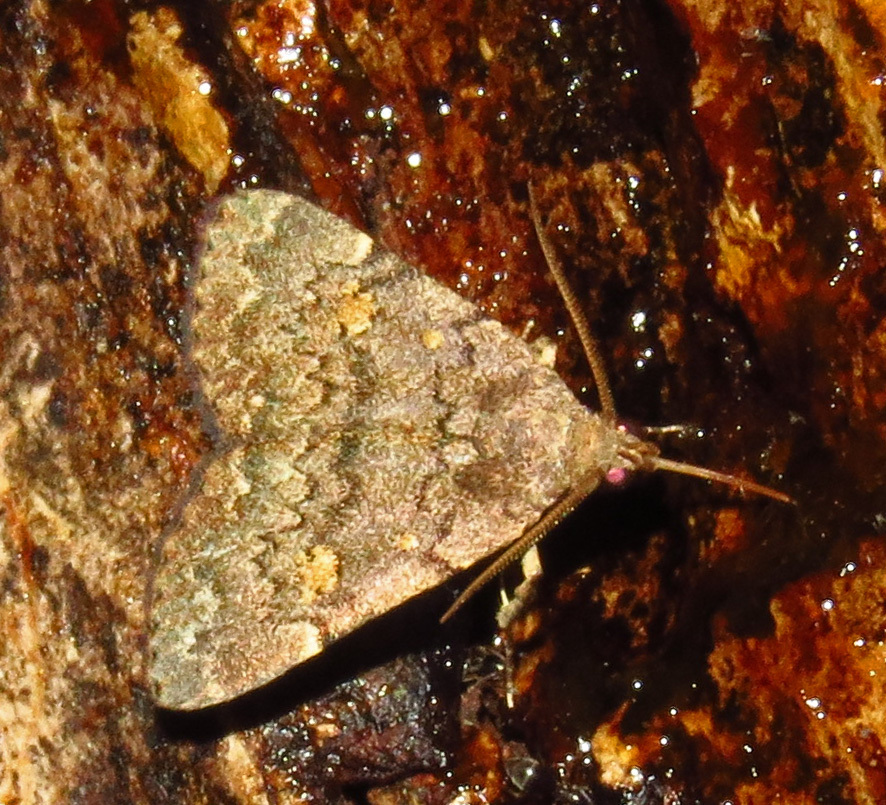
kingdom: Animalia
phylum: Arthropoda
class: Insecta
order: Lepidoptera
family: Erebidae
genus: Idia
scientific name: Idia aemula
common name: Common idia moth
